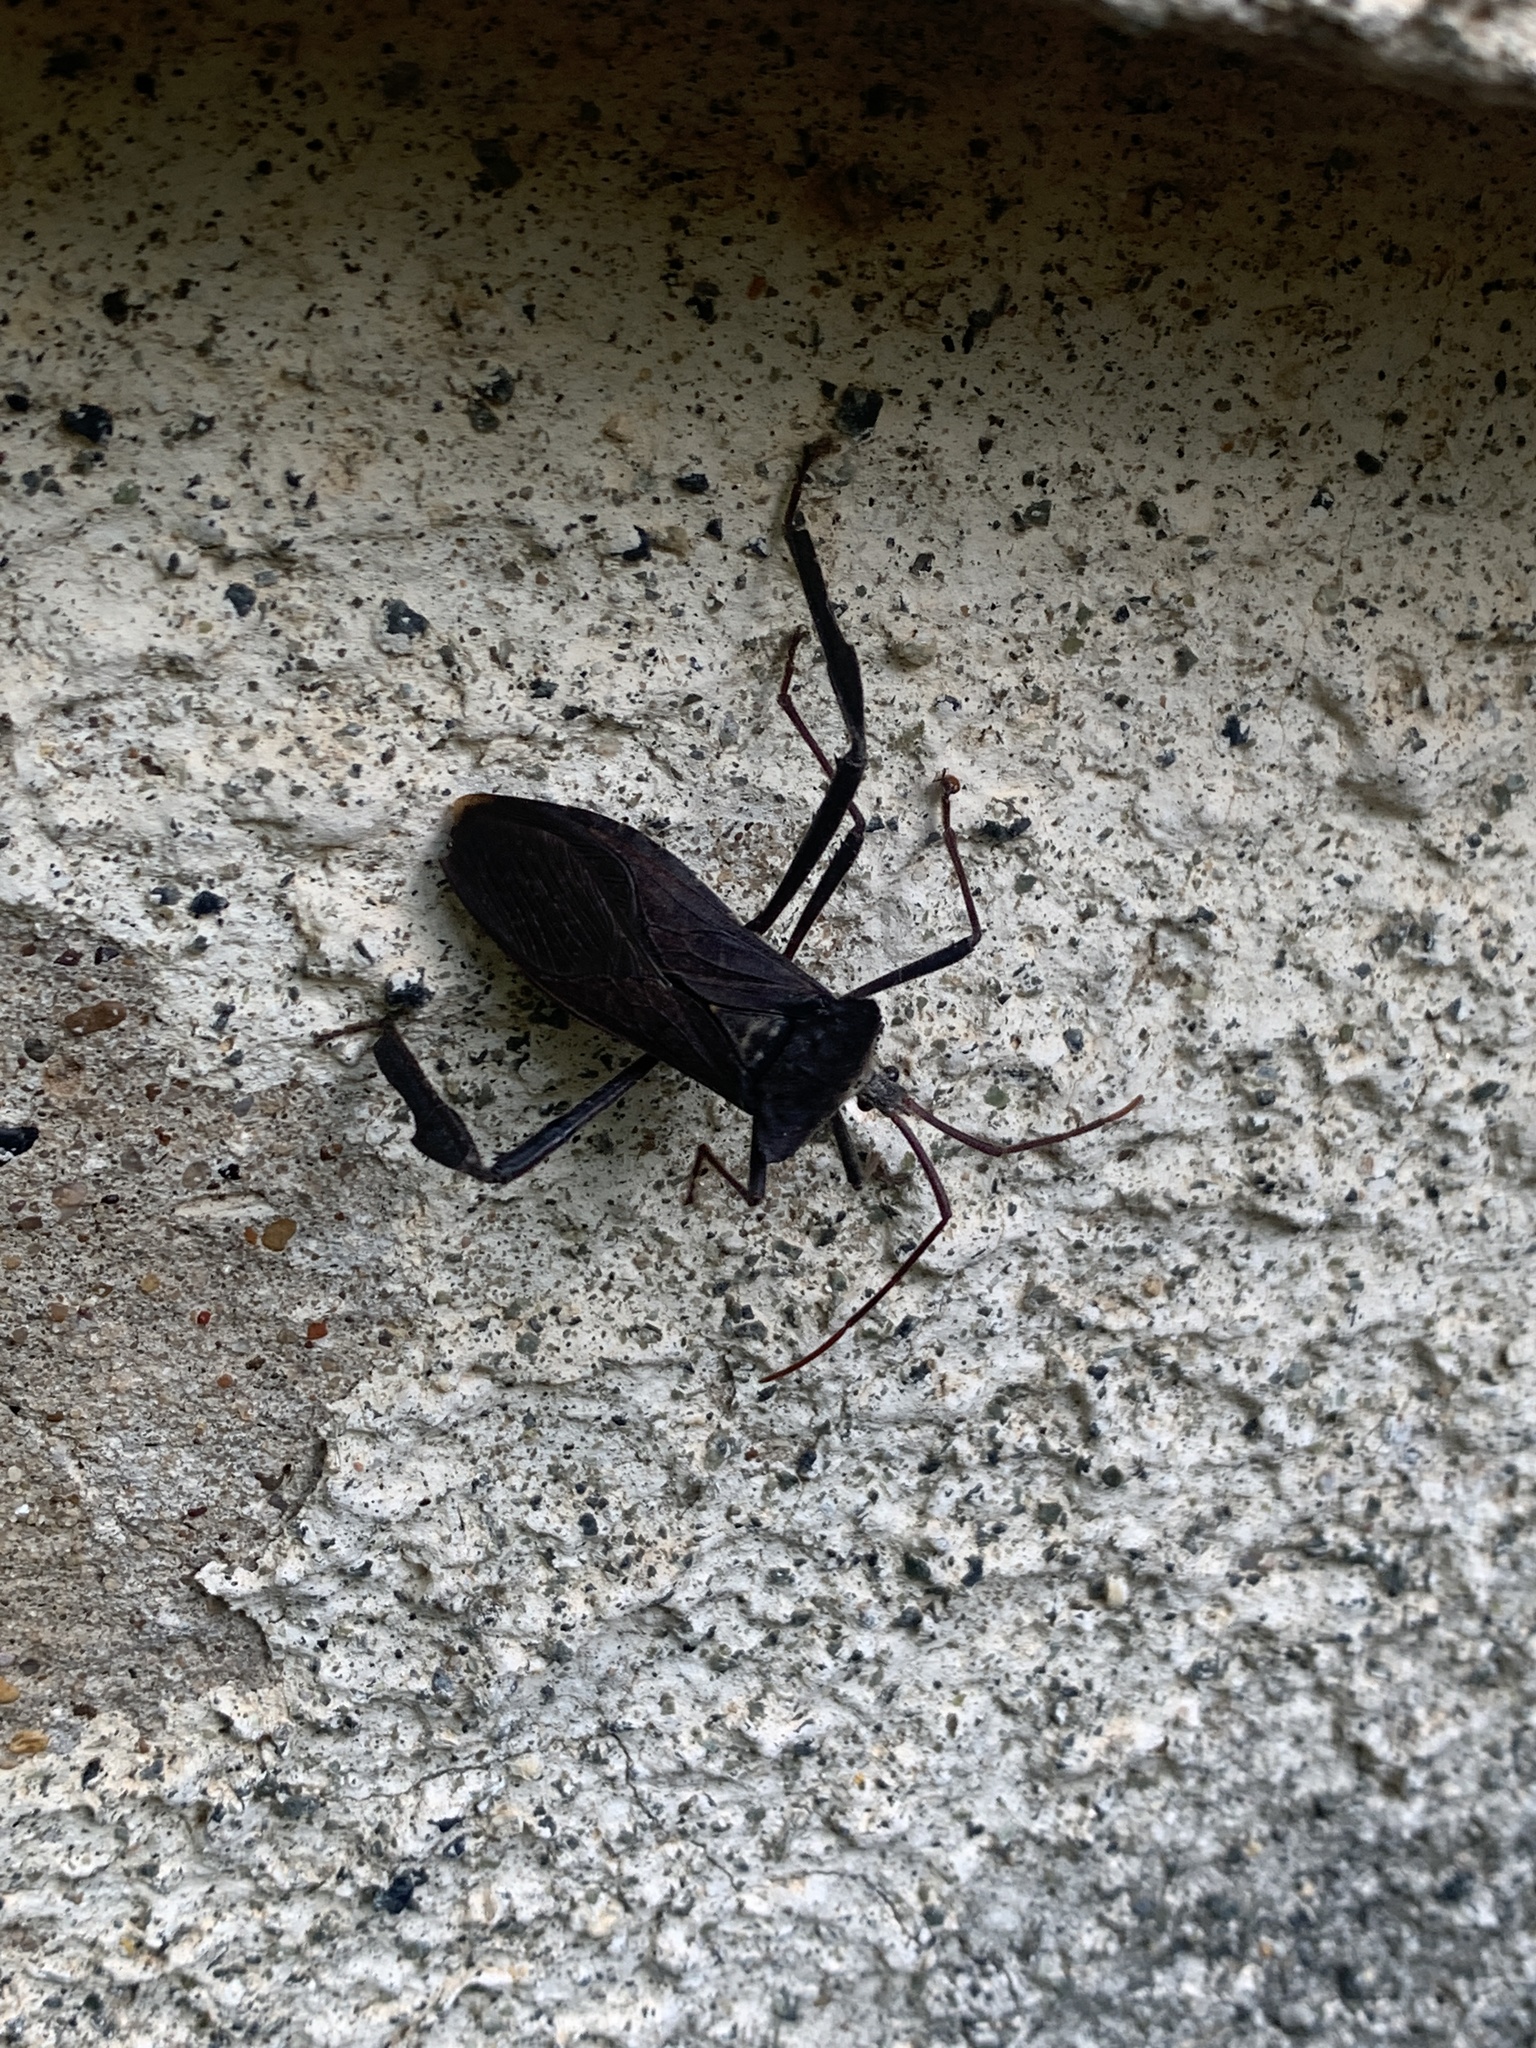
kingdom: Animalia
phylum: Arthropoda
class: Insecta
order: Hemiptera
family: Coreidae
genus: Acanthocephala
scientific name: Acanthocephala declivis
